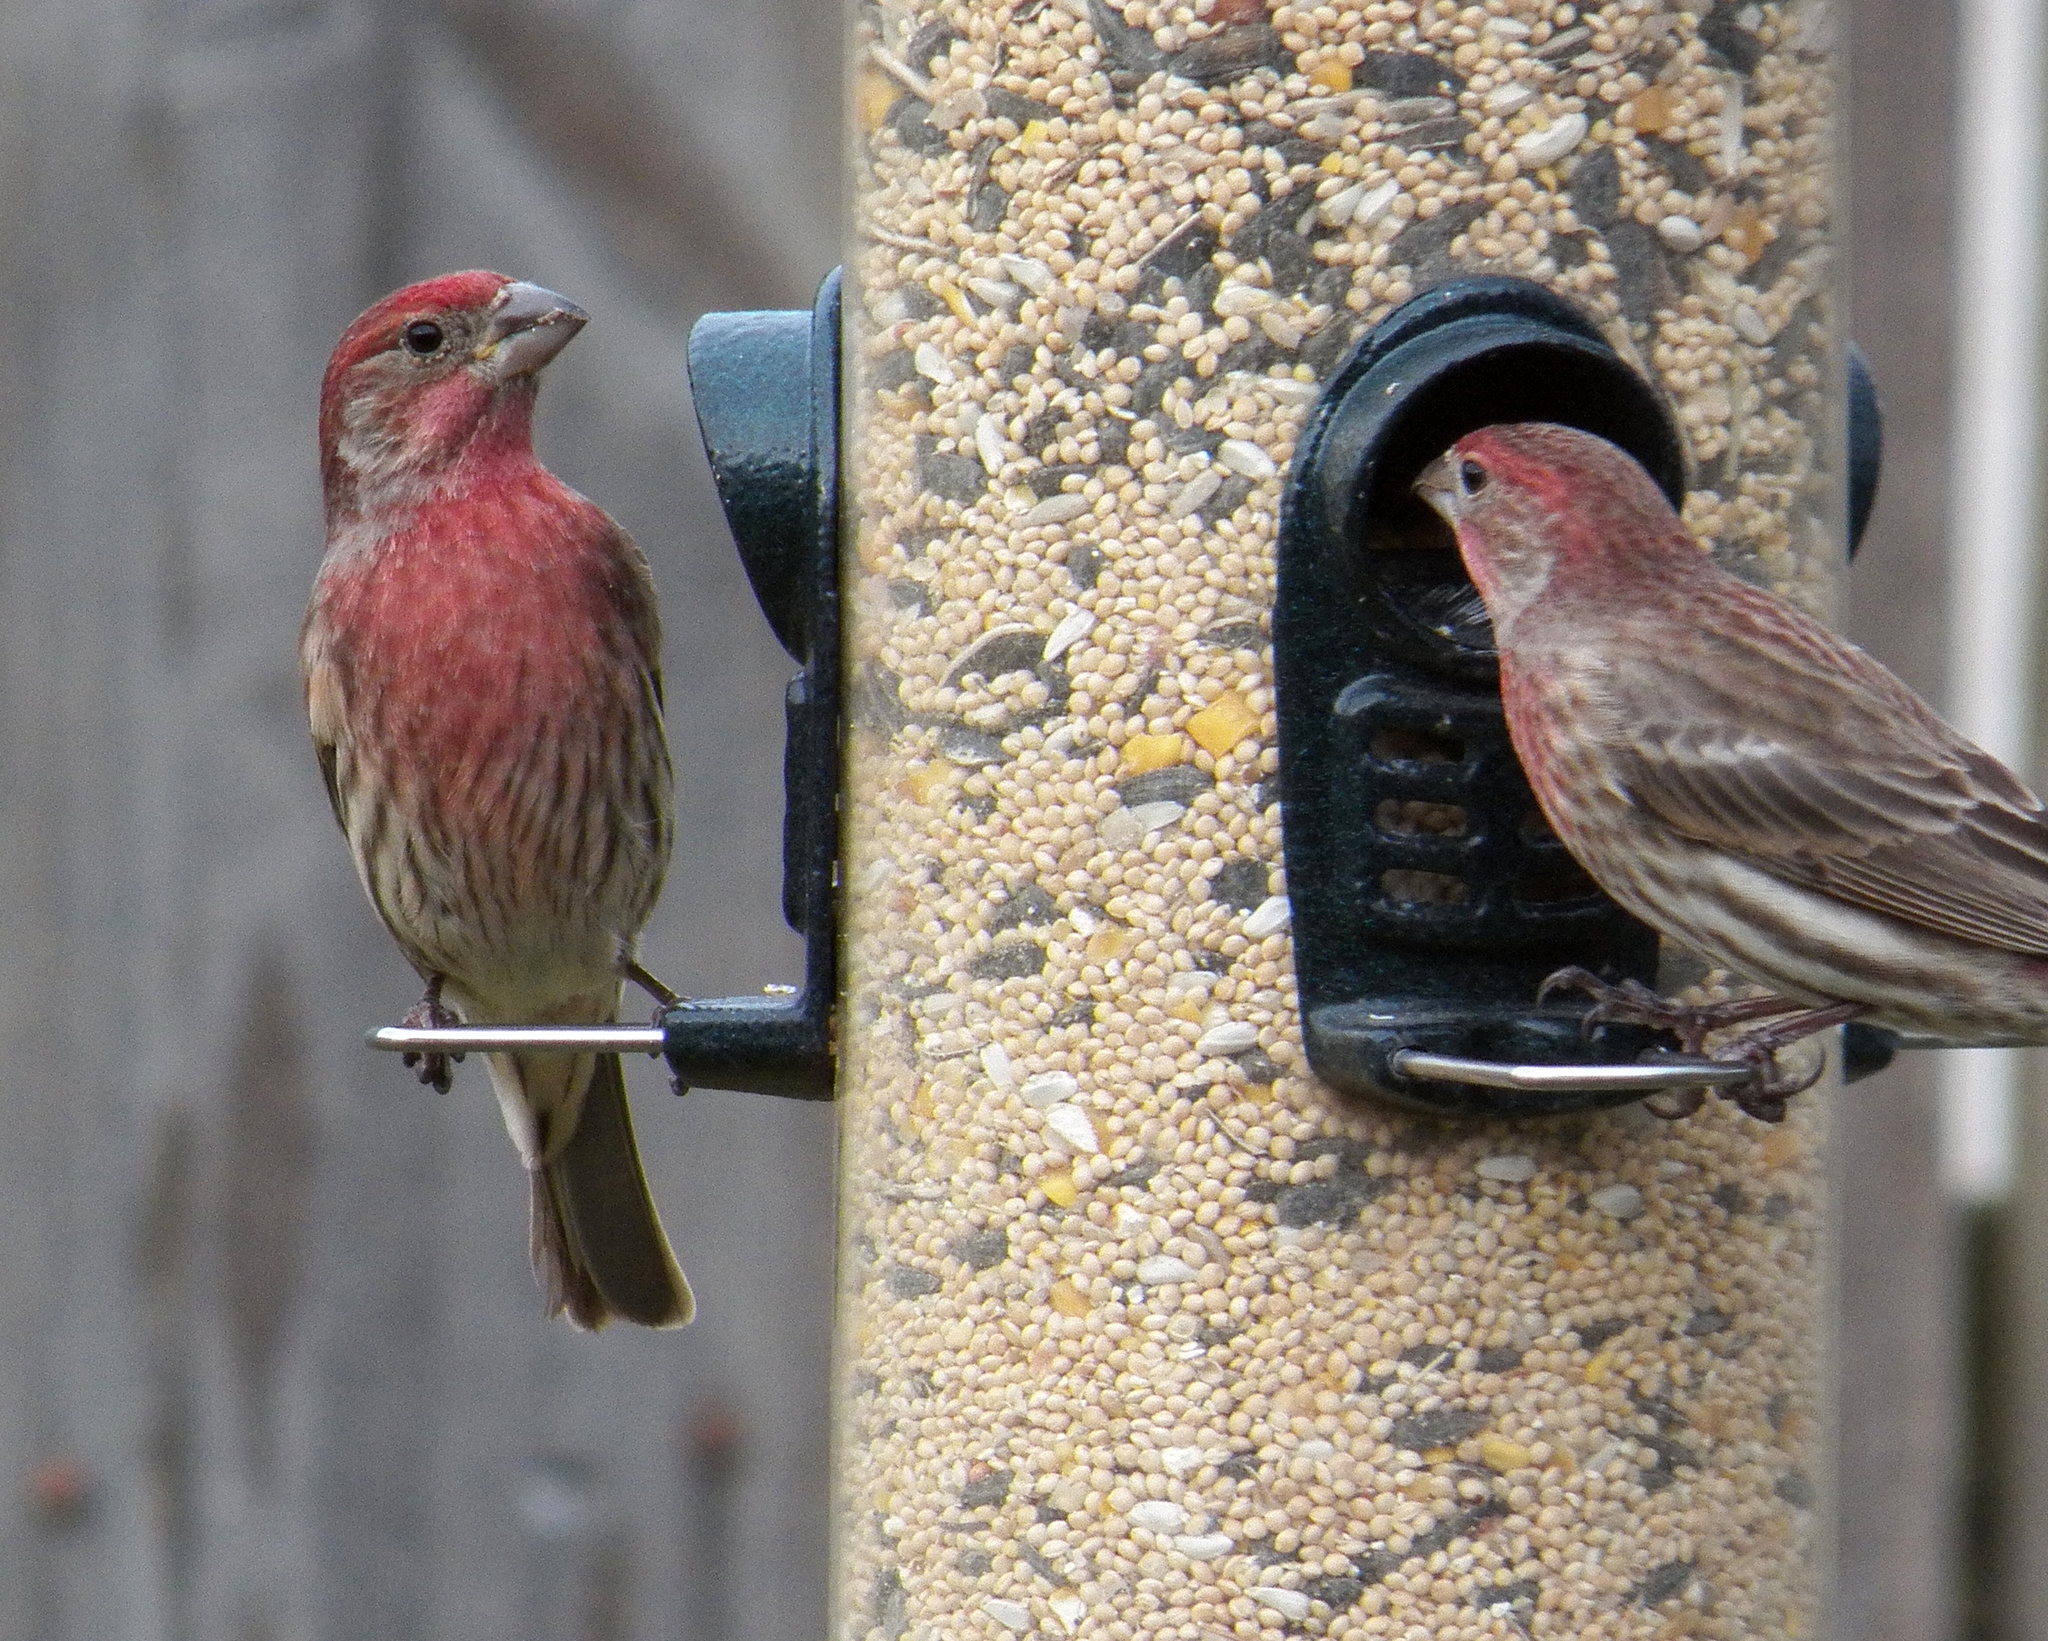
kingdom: Animalia
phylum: Chordata
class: Aves
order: Passeriformes
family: Fringillidae
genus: Haemorhous
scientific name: Haemorhous mexicanus
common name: House finch
